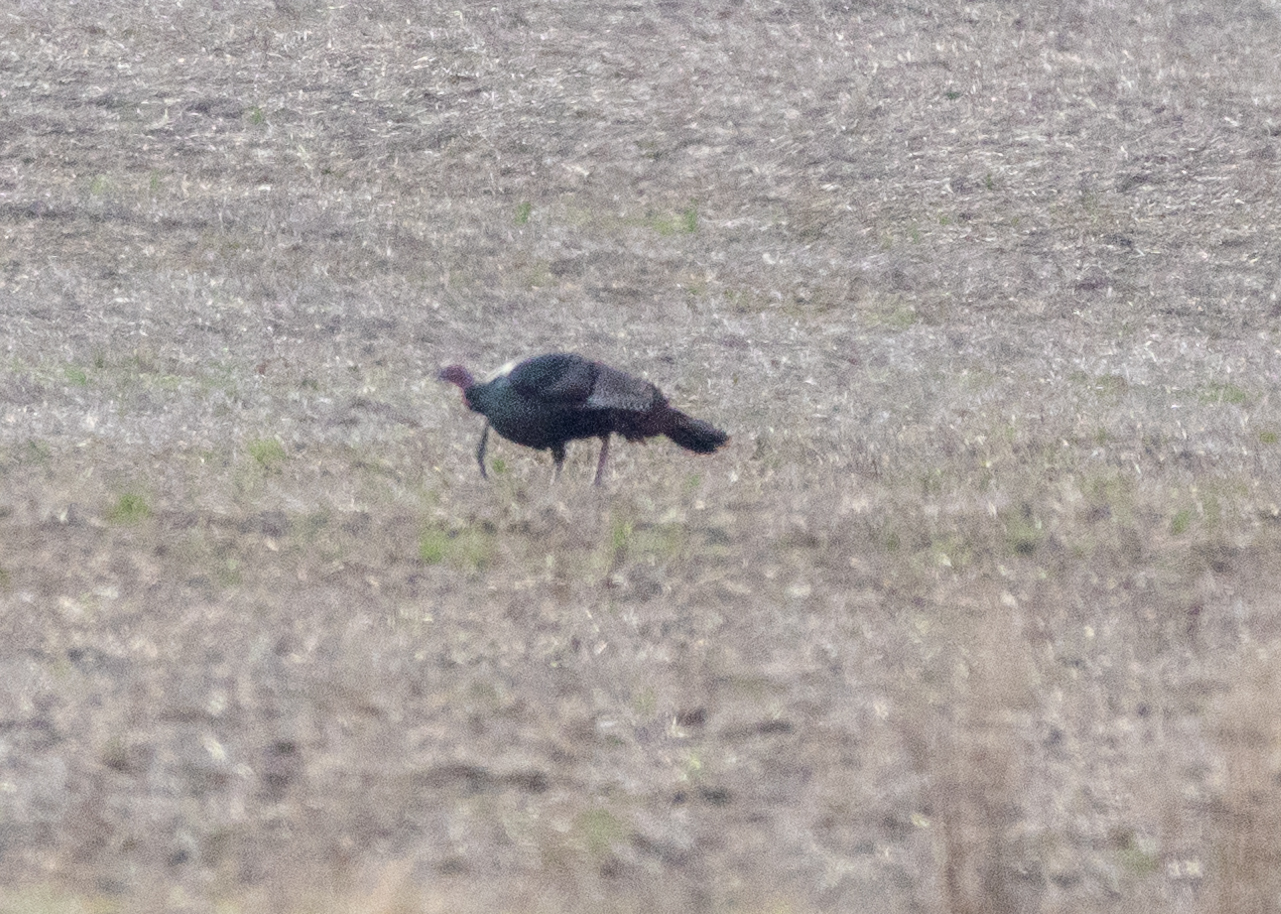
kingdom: Animalia
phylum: Chordata
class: Aves
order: Galliformes
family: Phasianidae
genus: Meleagris
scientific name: Meleagris gallopavo
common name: Wild turkey
